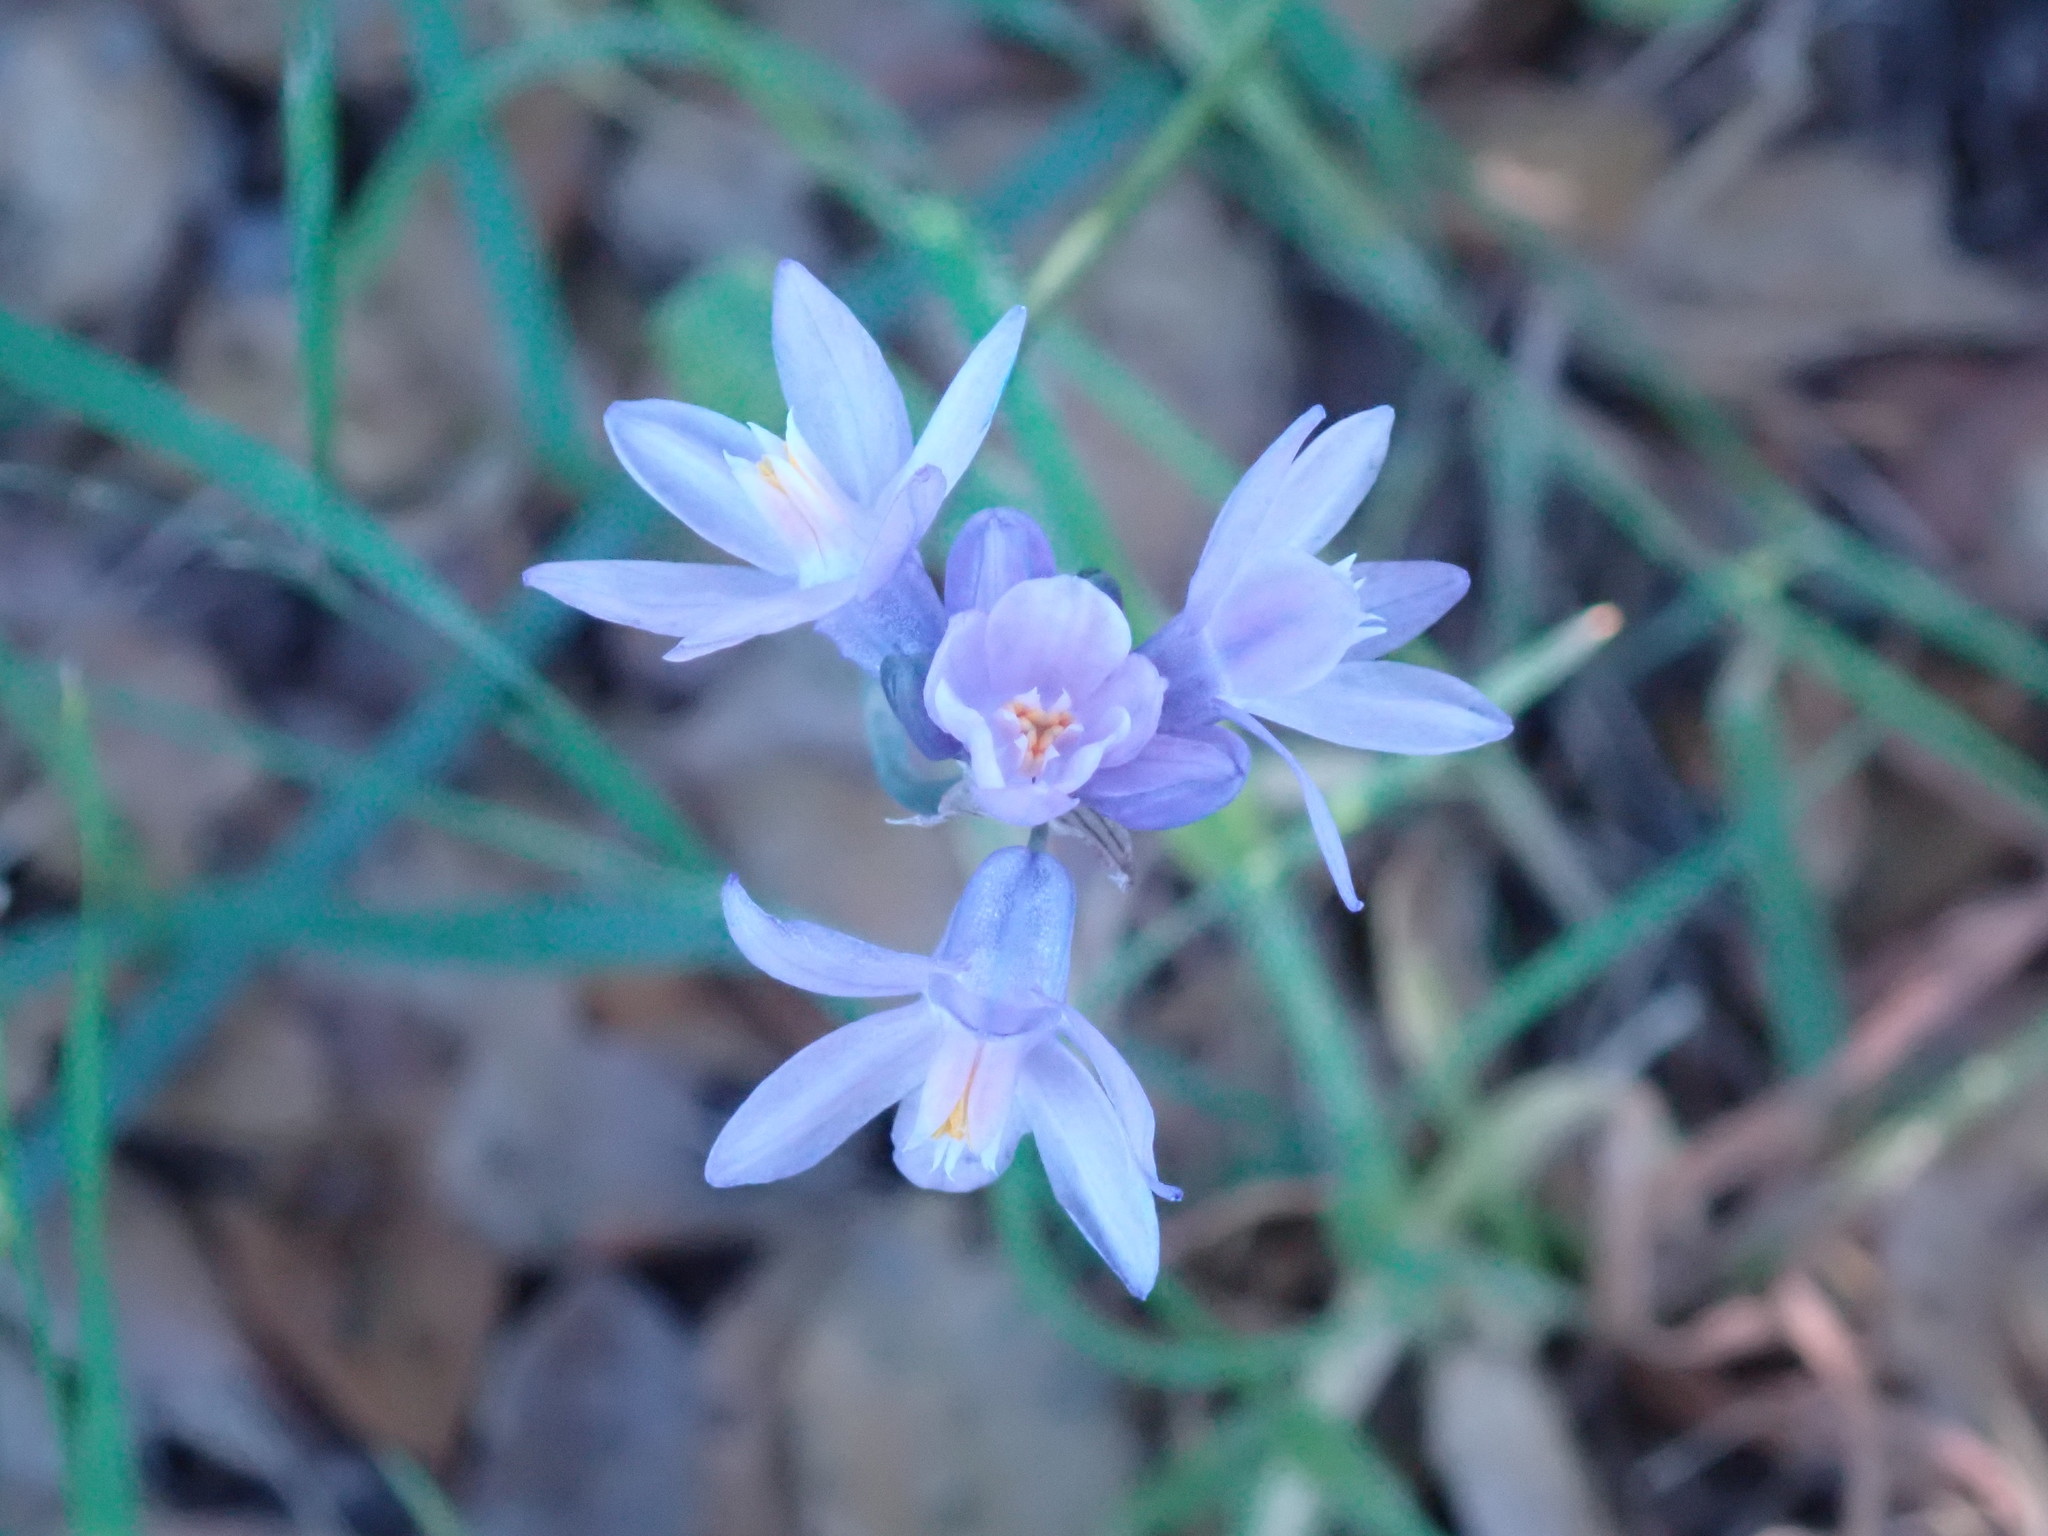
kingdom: Plantae
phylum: Tracheophyta
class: Liliopsida
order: Asparagales
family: Asparagaceae
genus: Dipterostemon
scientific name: Dipterostemon capitatus
